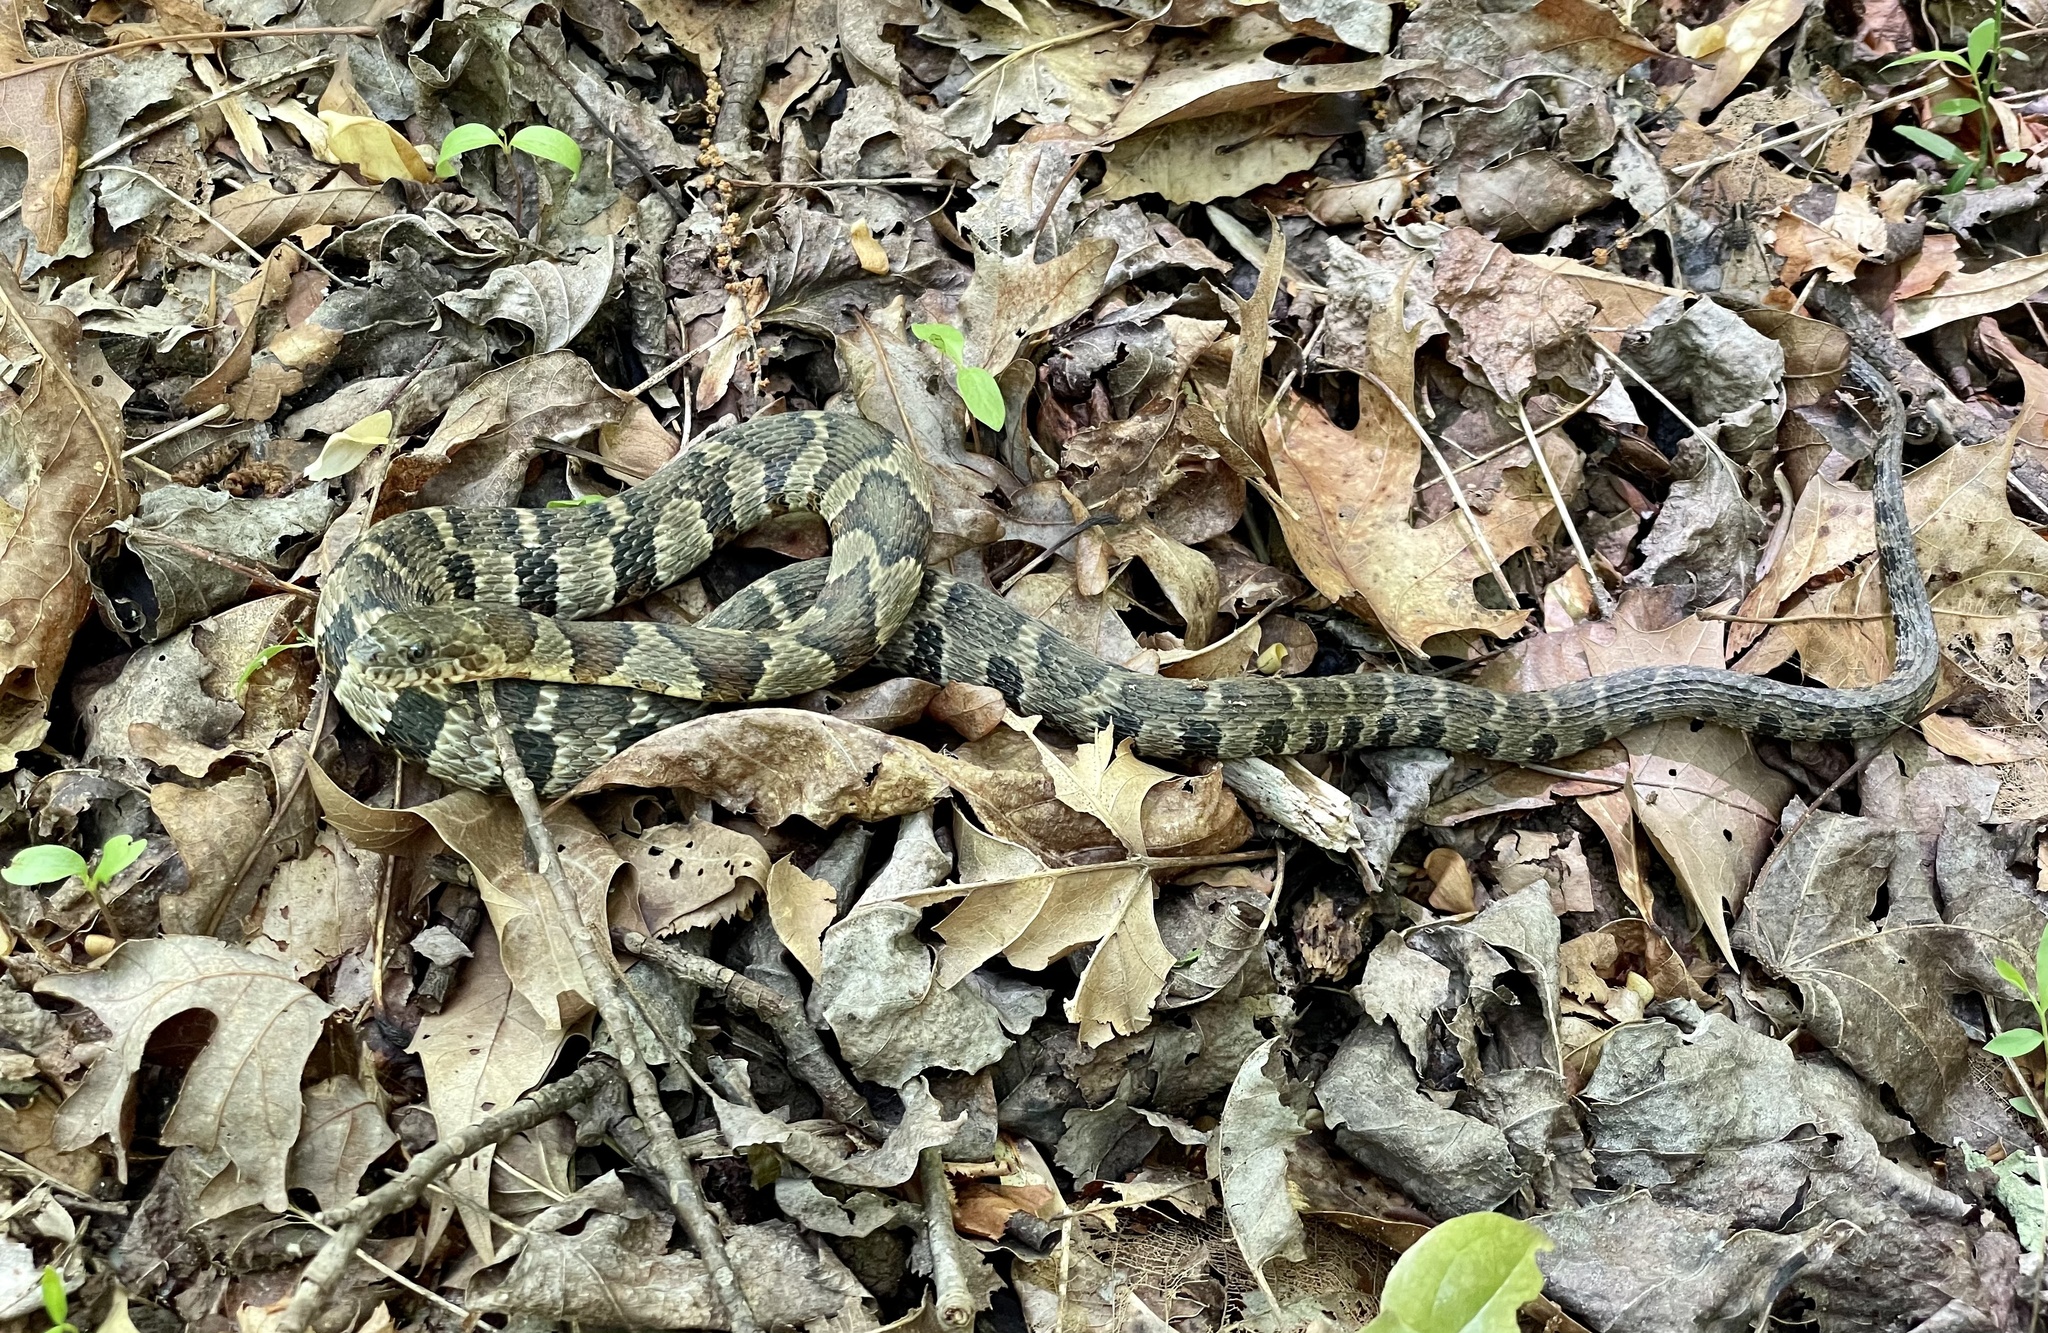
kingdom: Animalia
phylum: Chordata
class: Squamata
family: Colubridae
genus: Nerodia
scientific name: Nerodia sipedon
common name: Northern water snake
